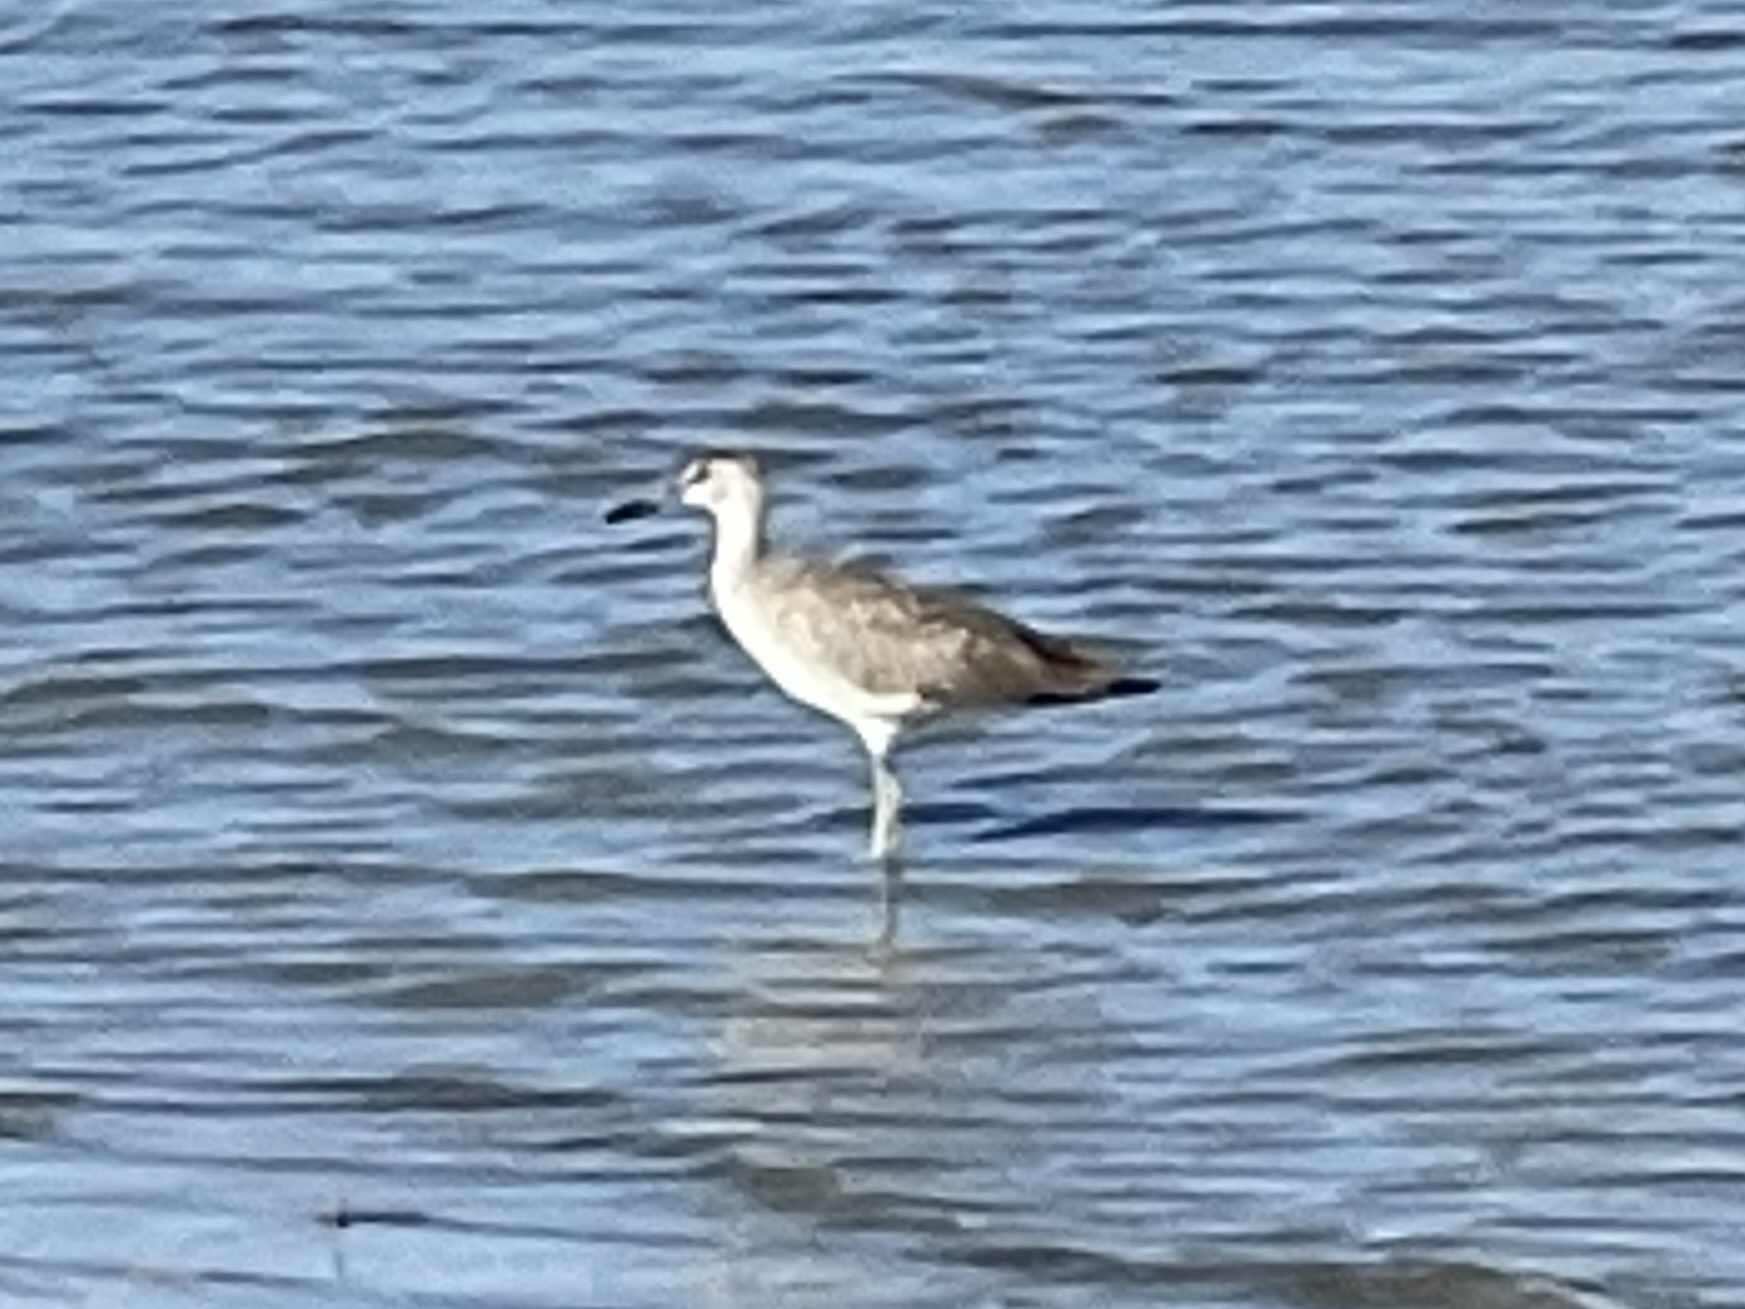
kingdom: Animalia
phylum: Chordata
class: Aves
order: Charadriiformes
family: Scolopacidae
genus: Tringa
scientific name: Tringa semipalmata
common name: Willet
